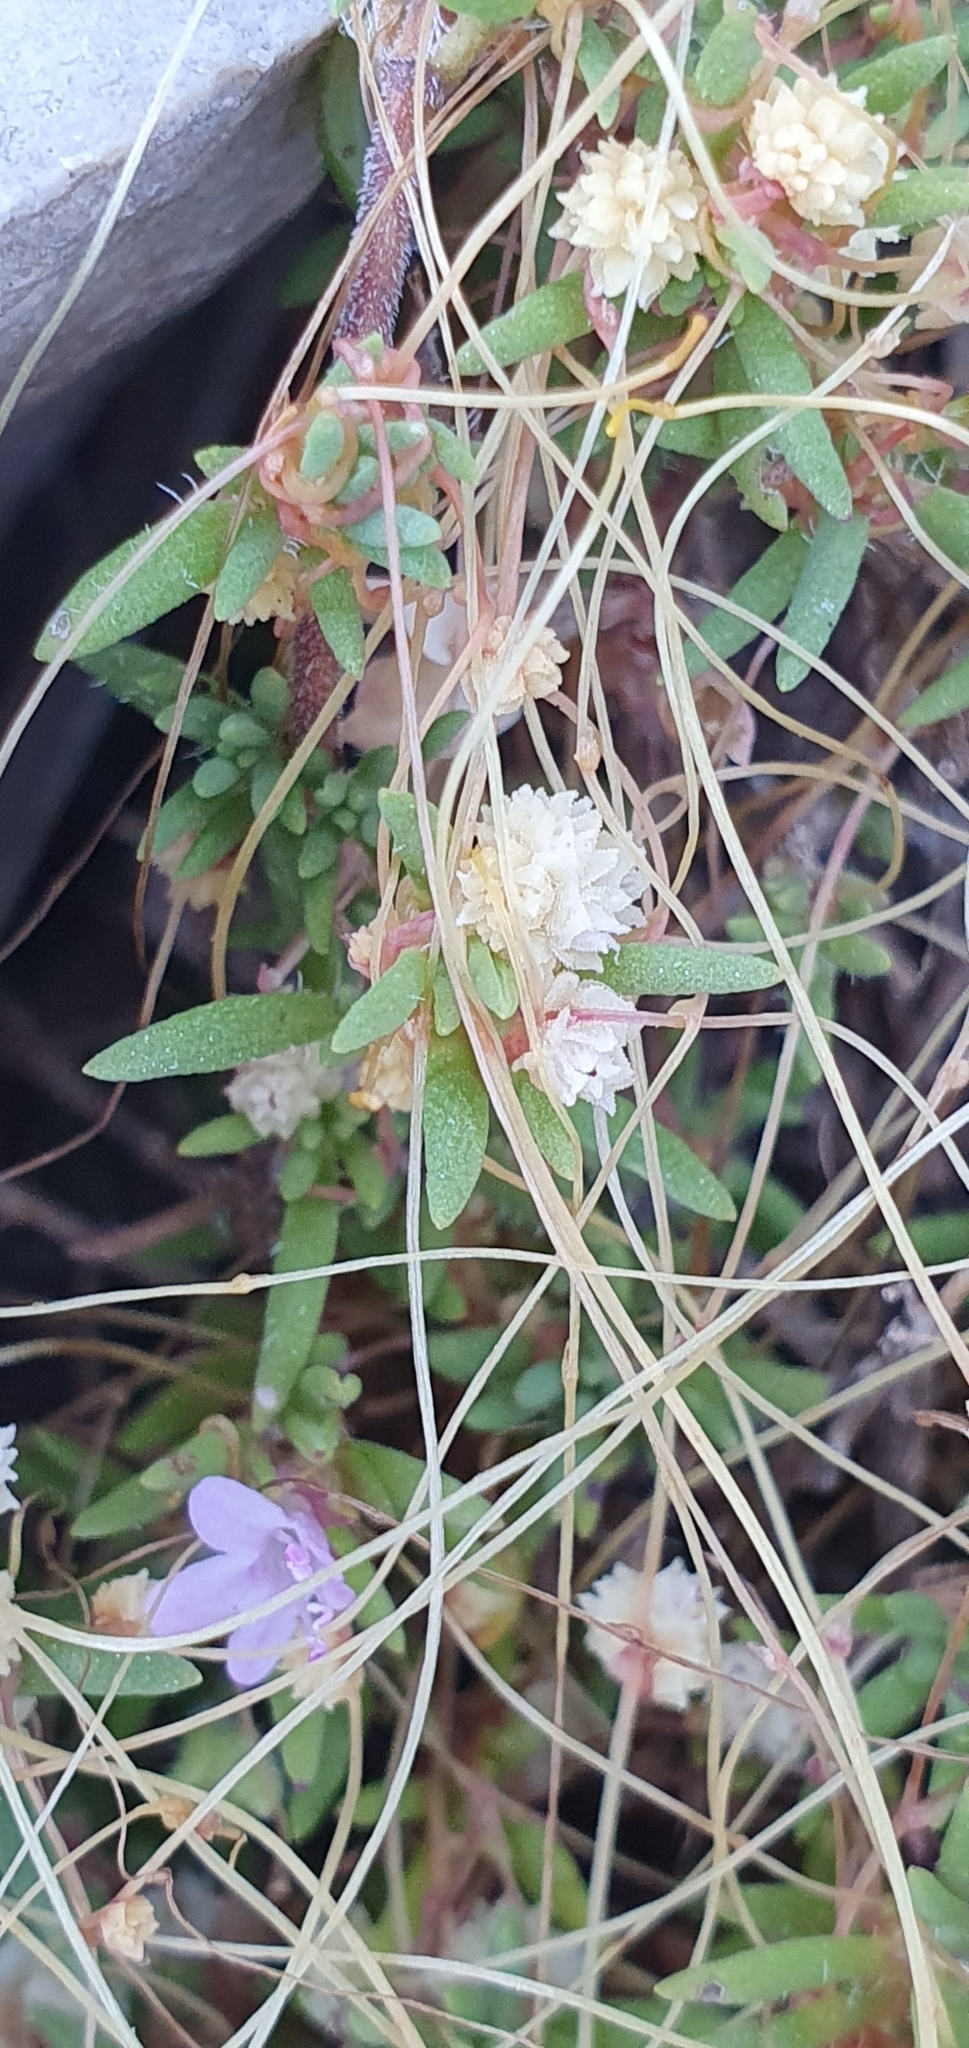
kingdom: Plantae
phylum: Tracheophyta
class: Magnoliopsida
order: Solanales
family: Convolvulaceae
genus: Cuscuta
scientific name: Cuscuta epithymum
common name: Clover dodder
